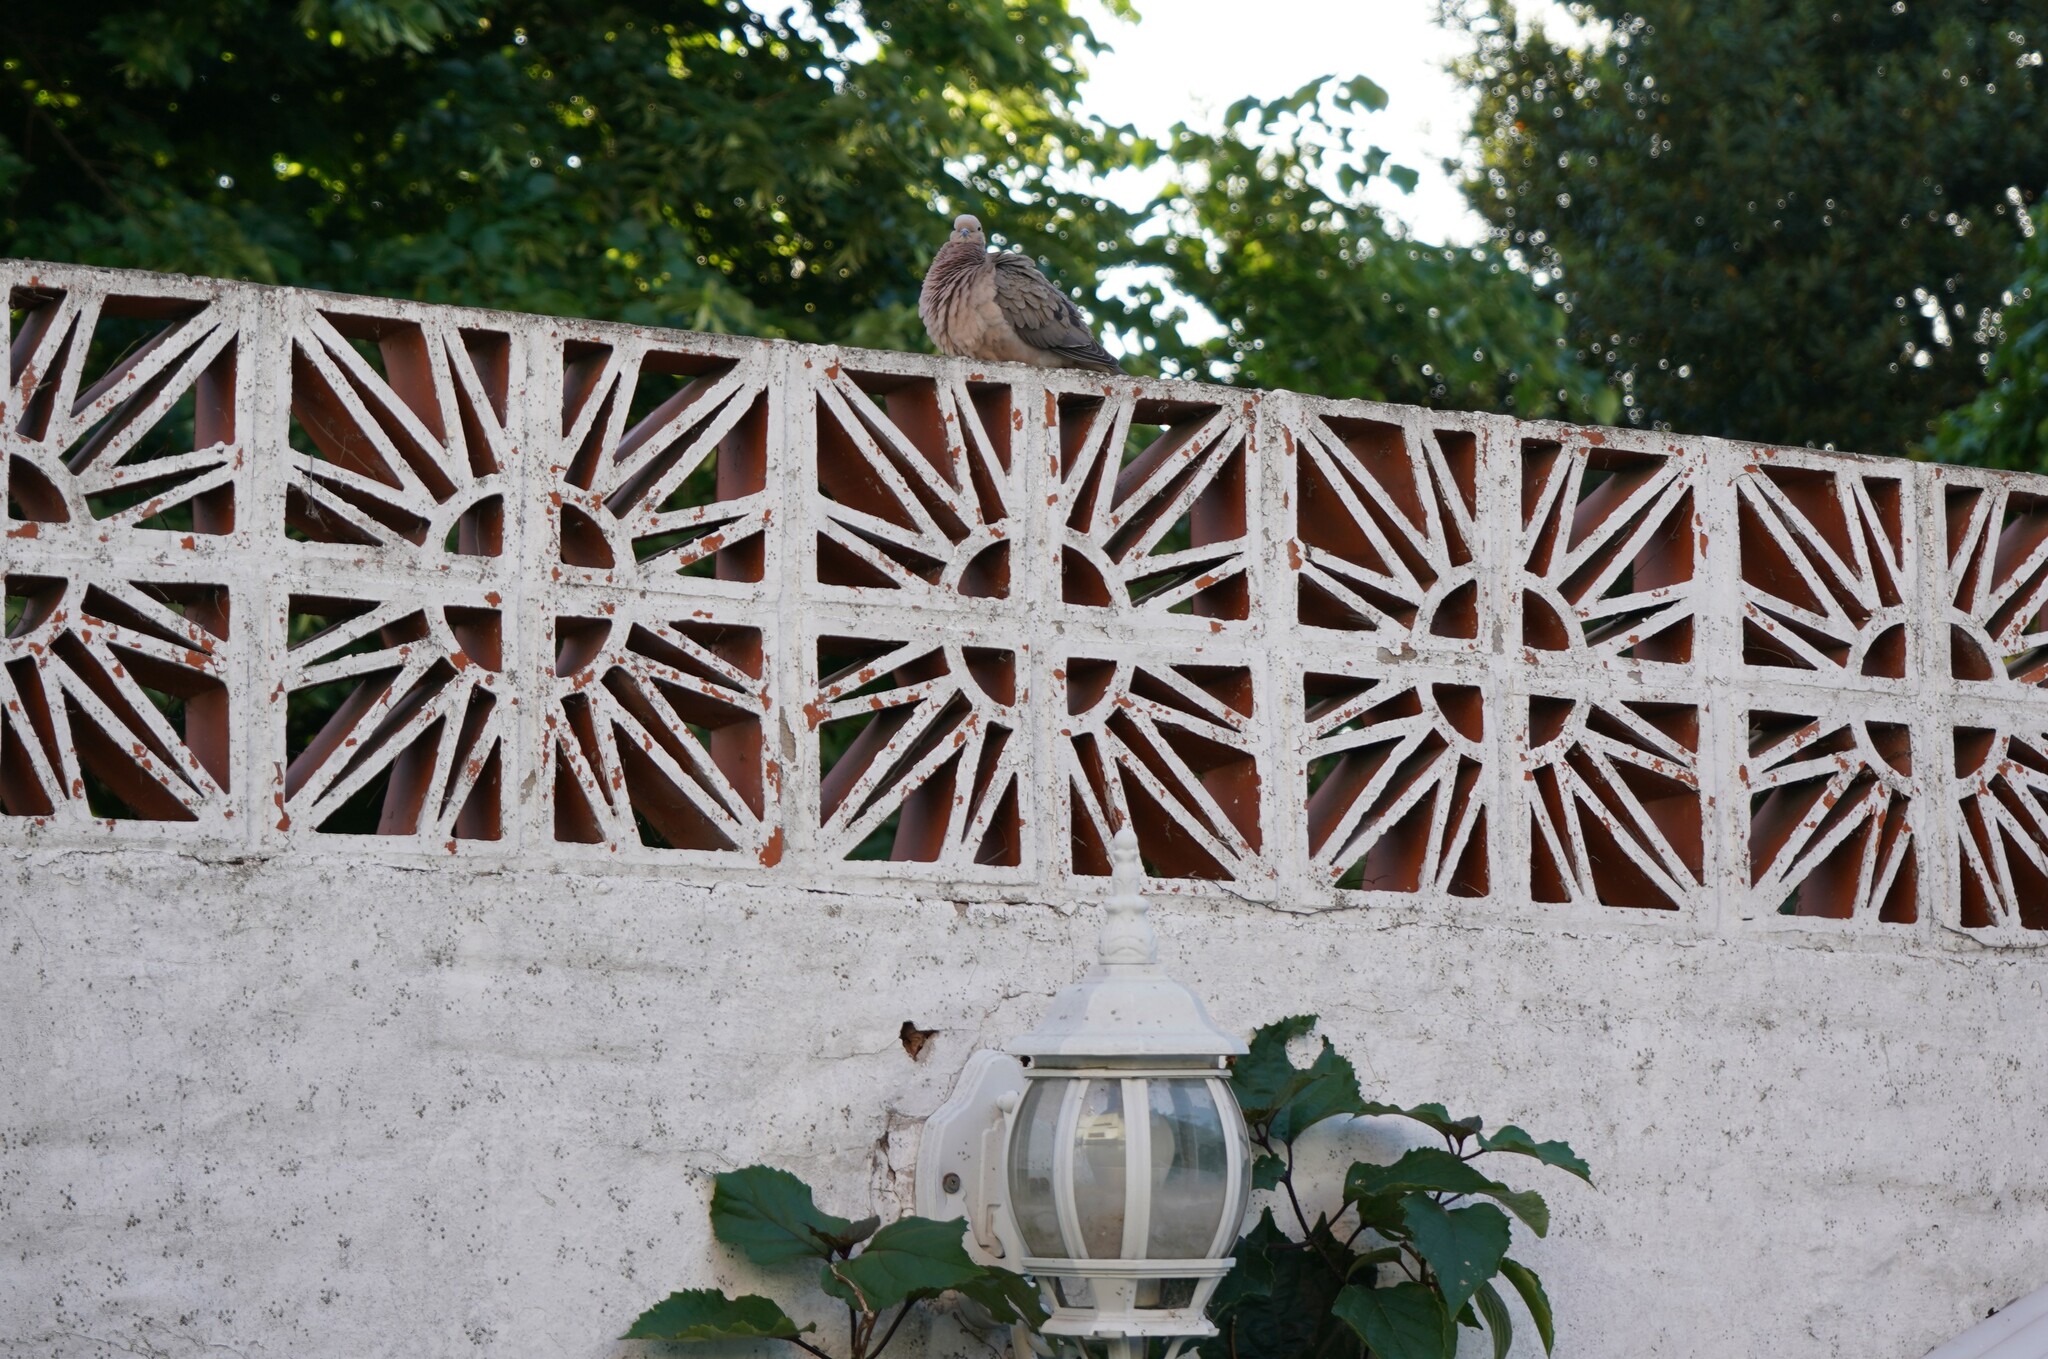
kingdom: Animalia
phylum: Chordata
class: Aves
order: Columbiformes
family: Columbidae
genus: Zenaida
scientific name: Zenaida auriculata
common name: Eared dove
